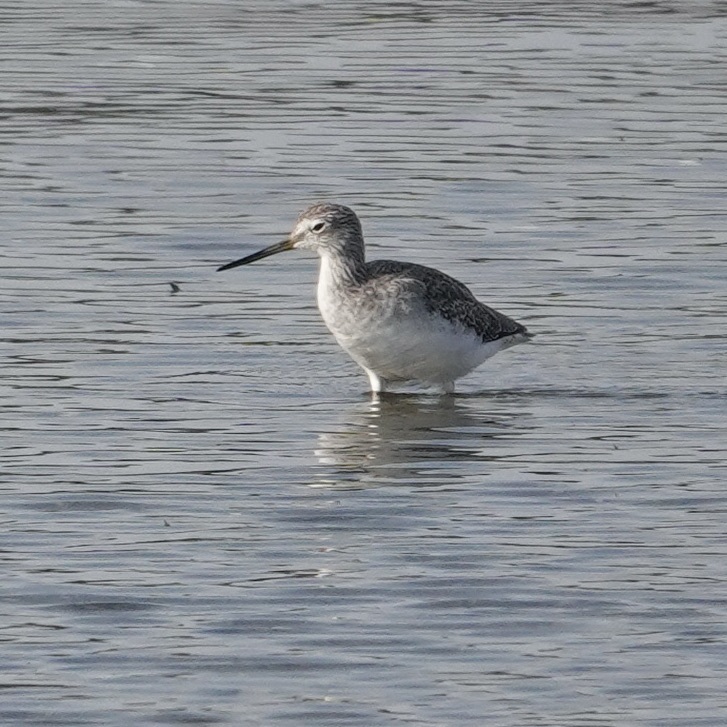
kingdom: Animalia
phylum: Chordata
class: Aves
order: Charadriiformes
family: Scolopacidae
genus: Tringa
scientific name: Tringa melanoleuca
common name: Greater yellowlegs
